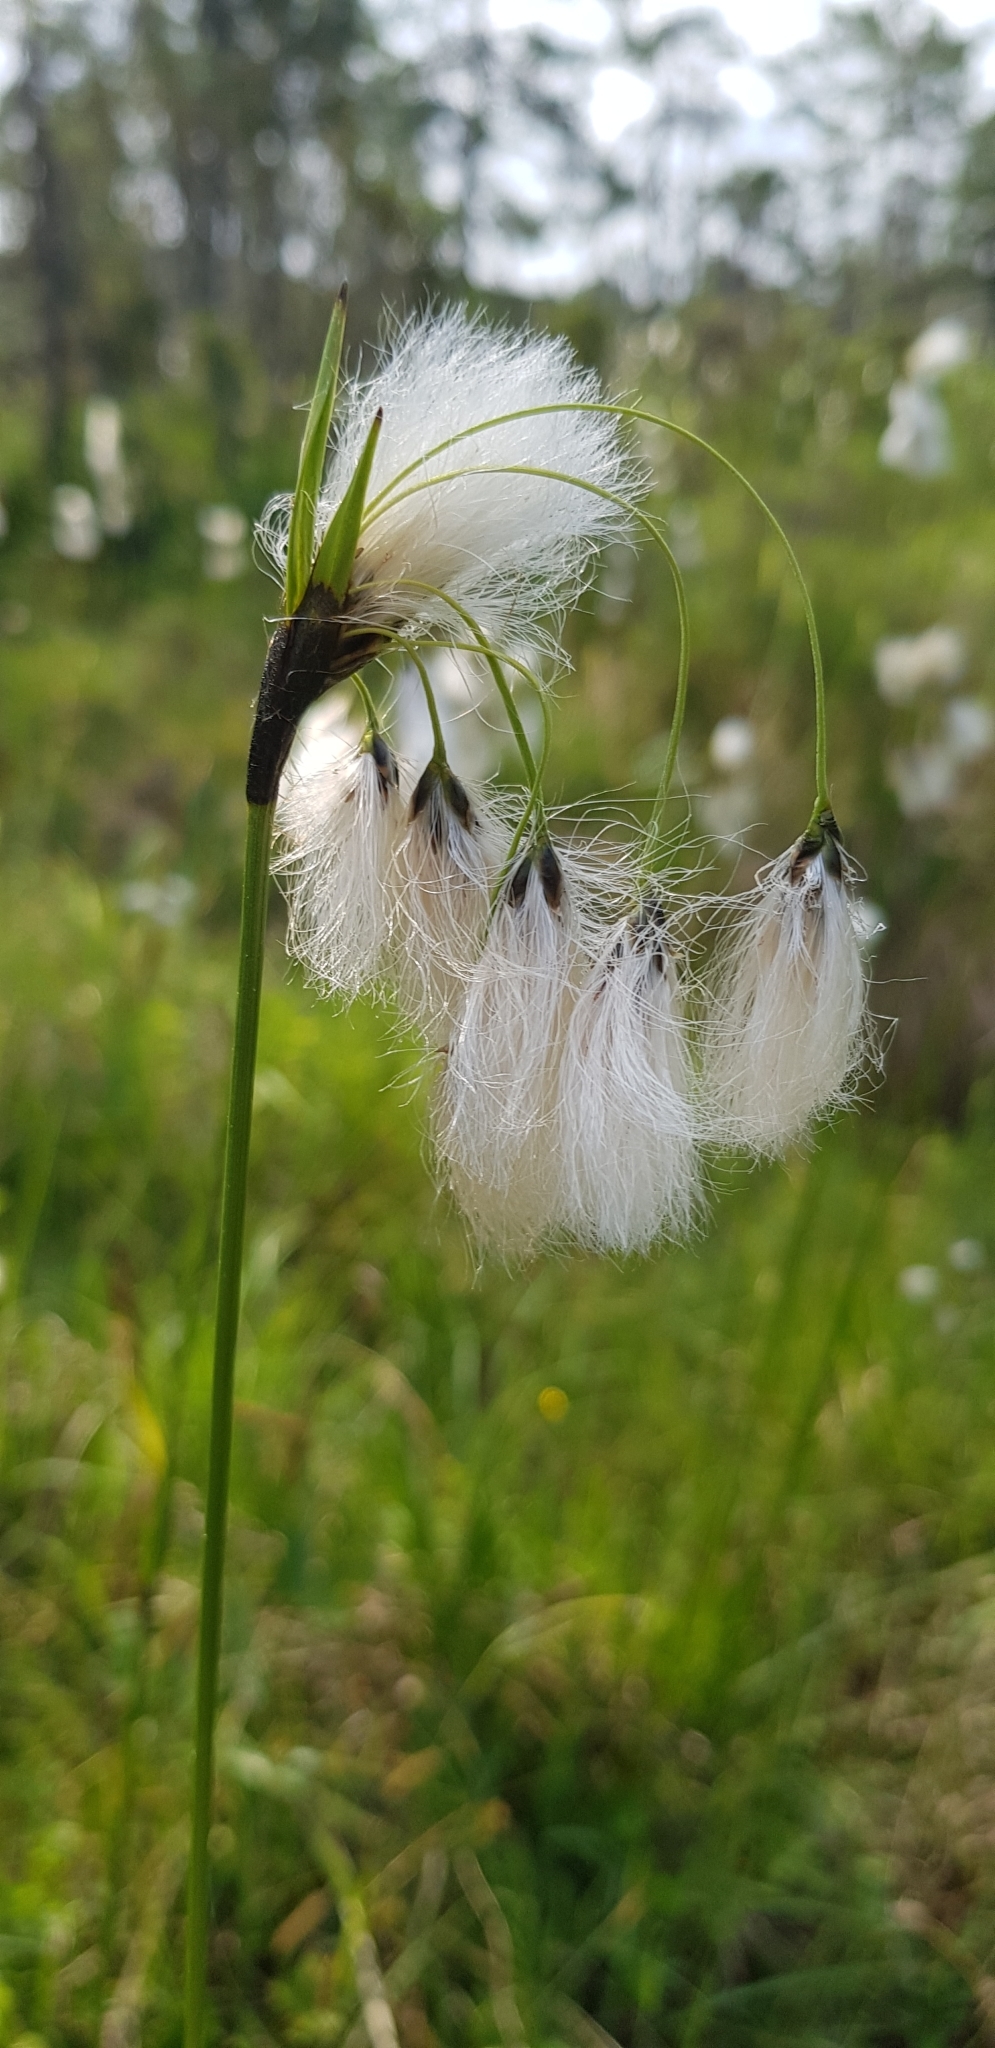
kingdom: Plantae
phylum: Tracheophyta
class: Liliopsida
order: Poales
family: Cyperaceae
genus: Eriophorum
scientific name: Eriophorum latifolium
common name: Broad-leaved cottongrass
